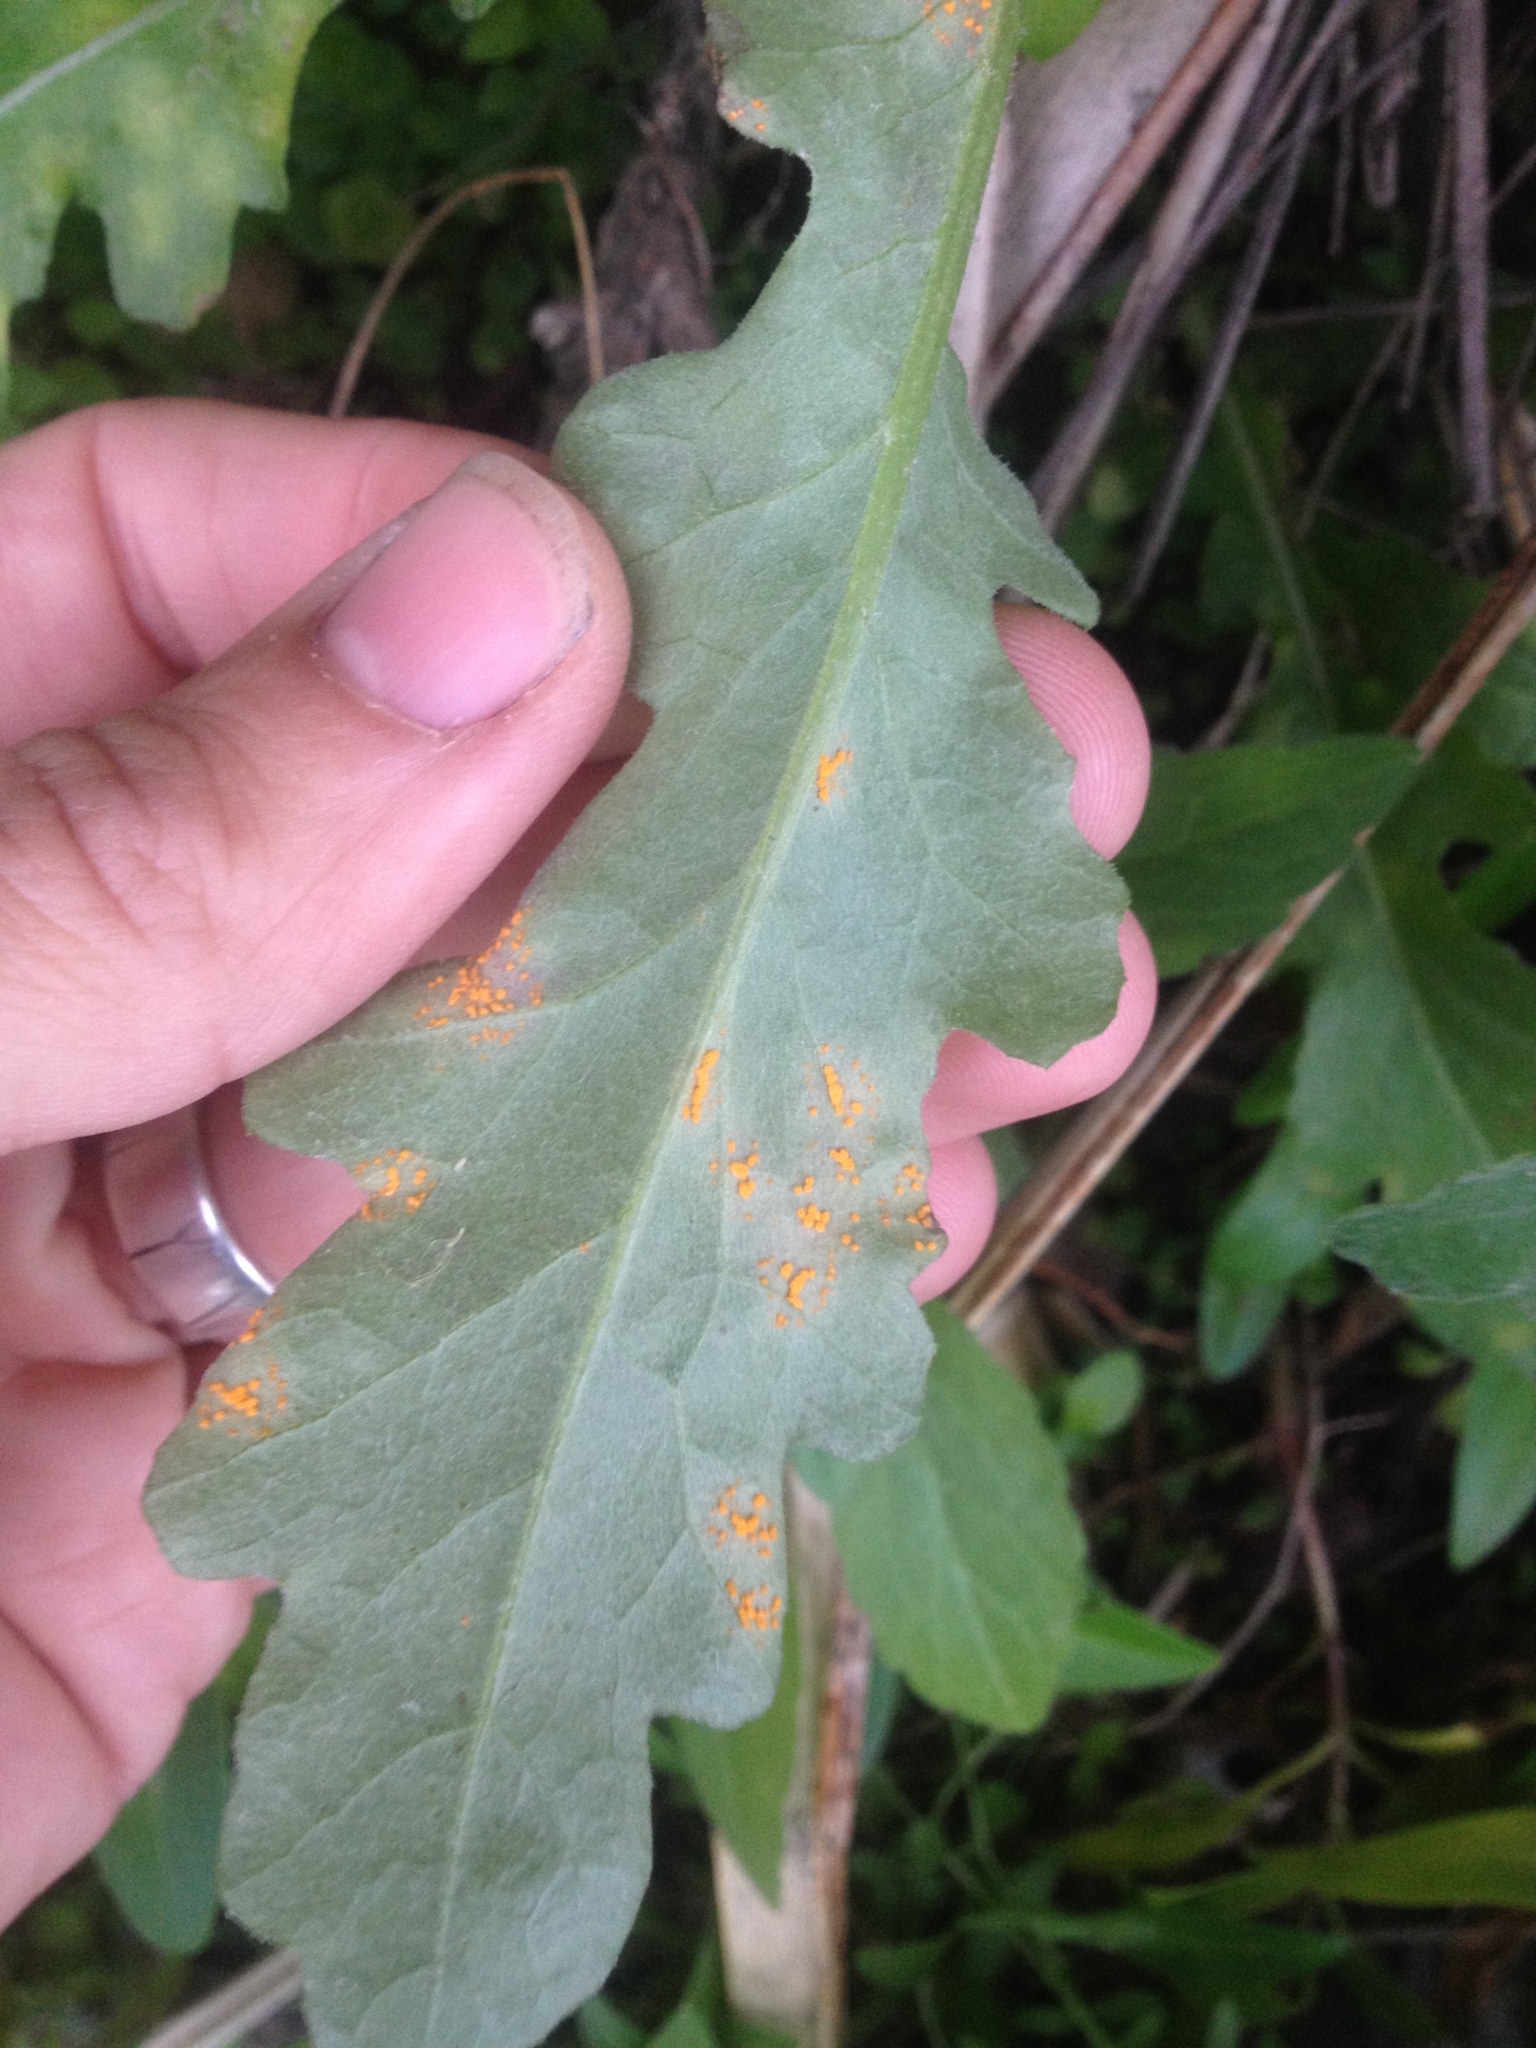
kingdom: Fungi
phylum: Basidiomycota
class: Pucciniomycetes
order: Pucciniales
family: Coleosporiaceae
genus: Coleosporium
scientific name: Coleosporium tussilaginis
